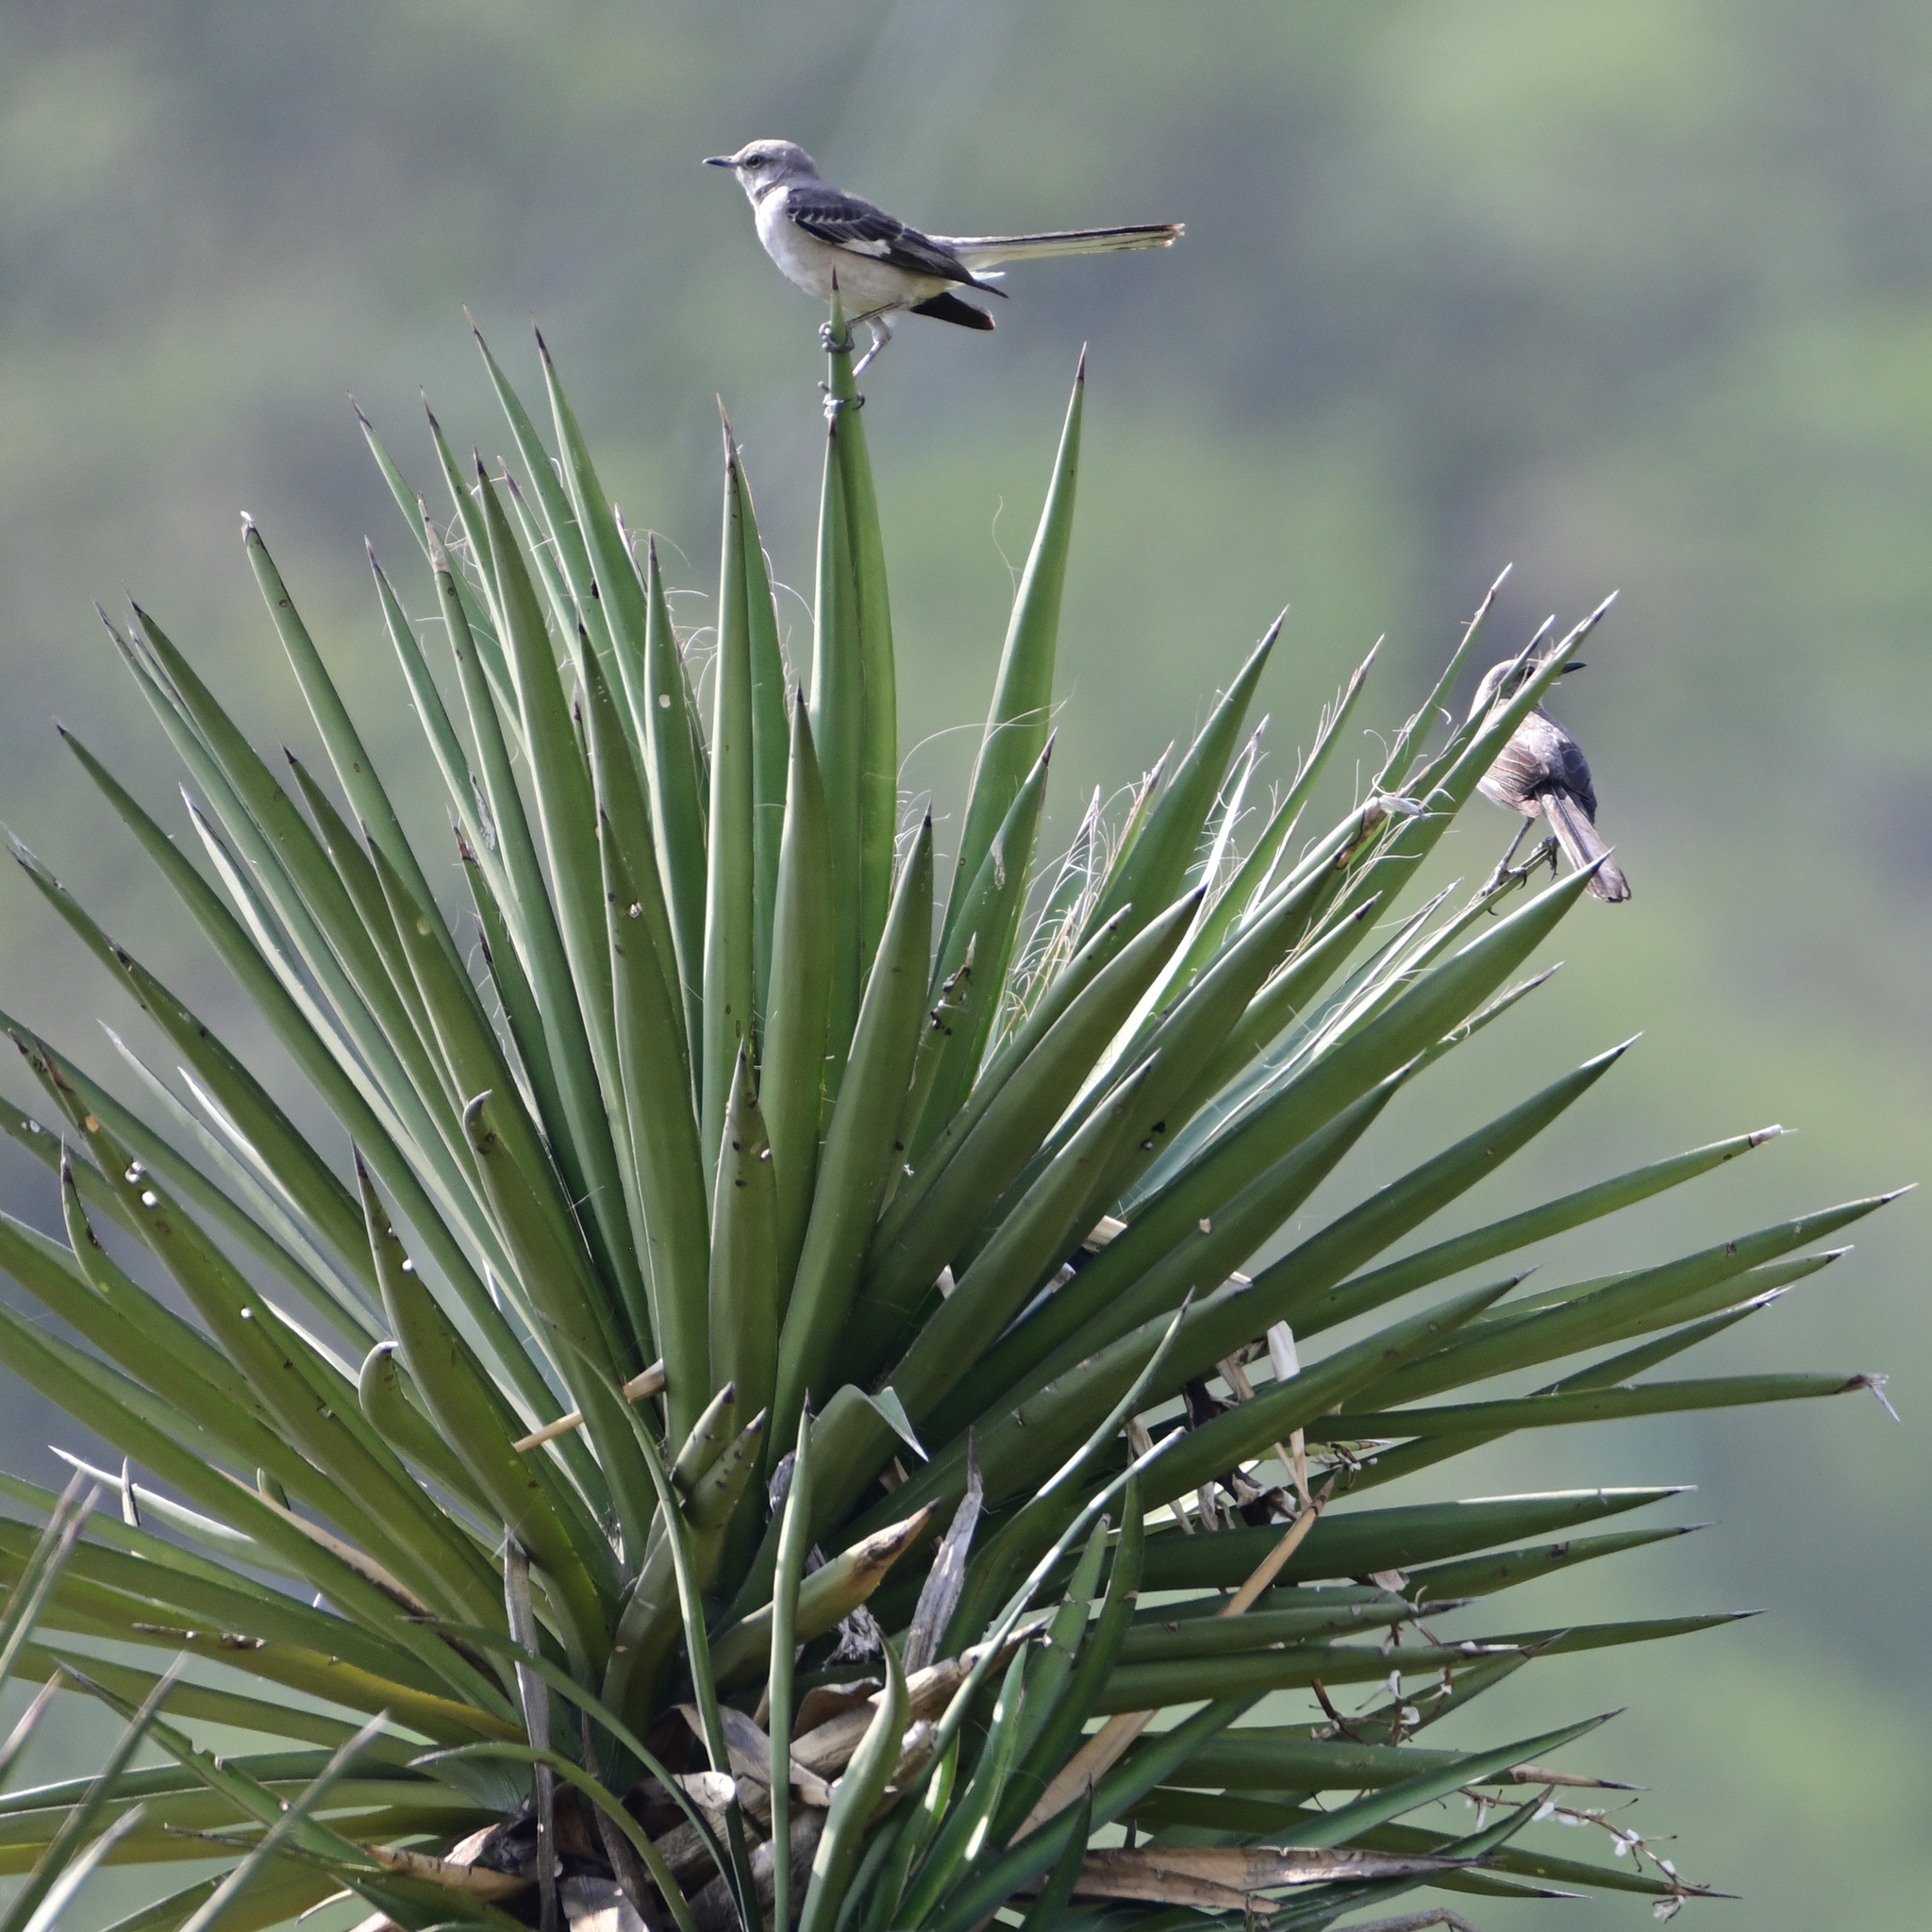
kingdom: Animalia
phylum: Chordata
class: Aves
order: Passeriformes
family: Mimidae
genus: Mimus
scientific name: Mimus polyglottos
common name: Northern mockingbird
